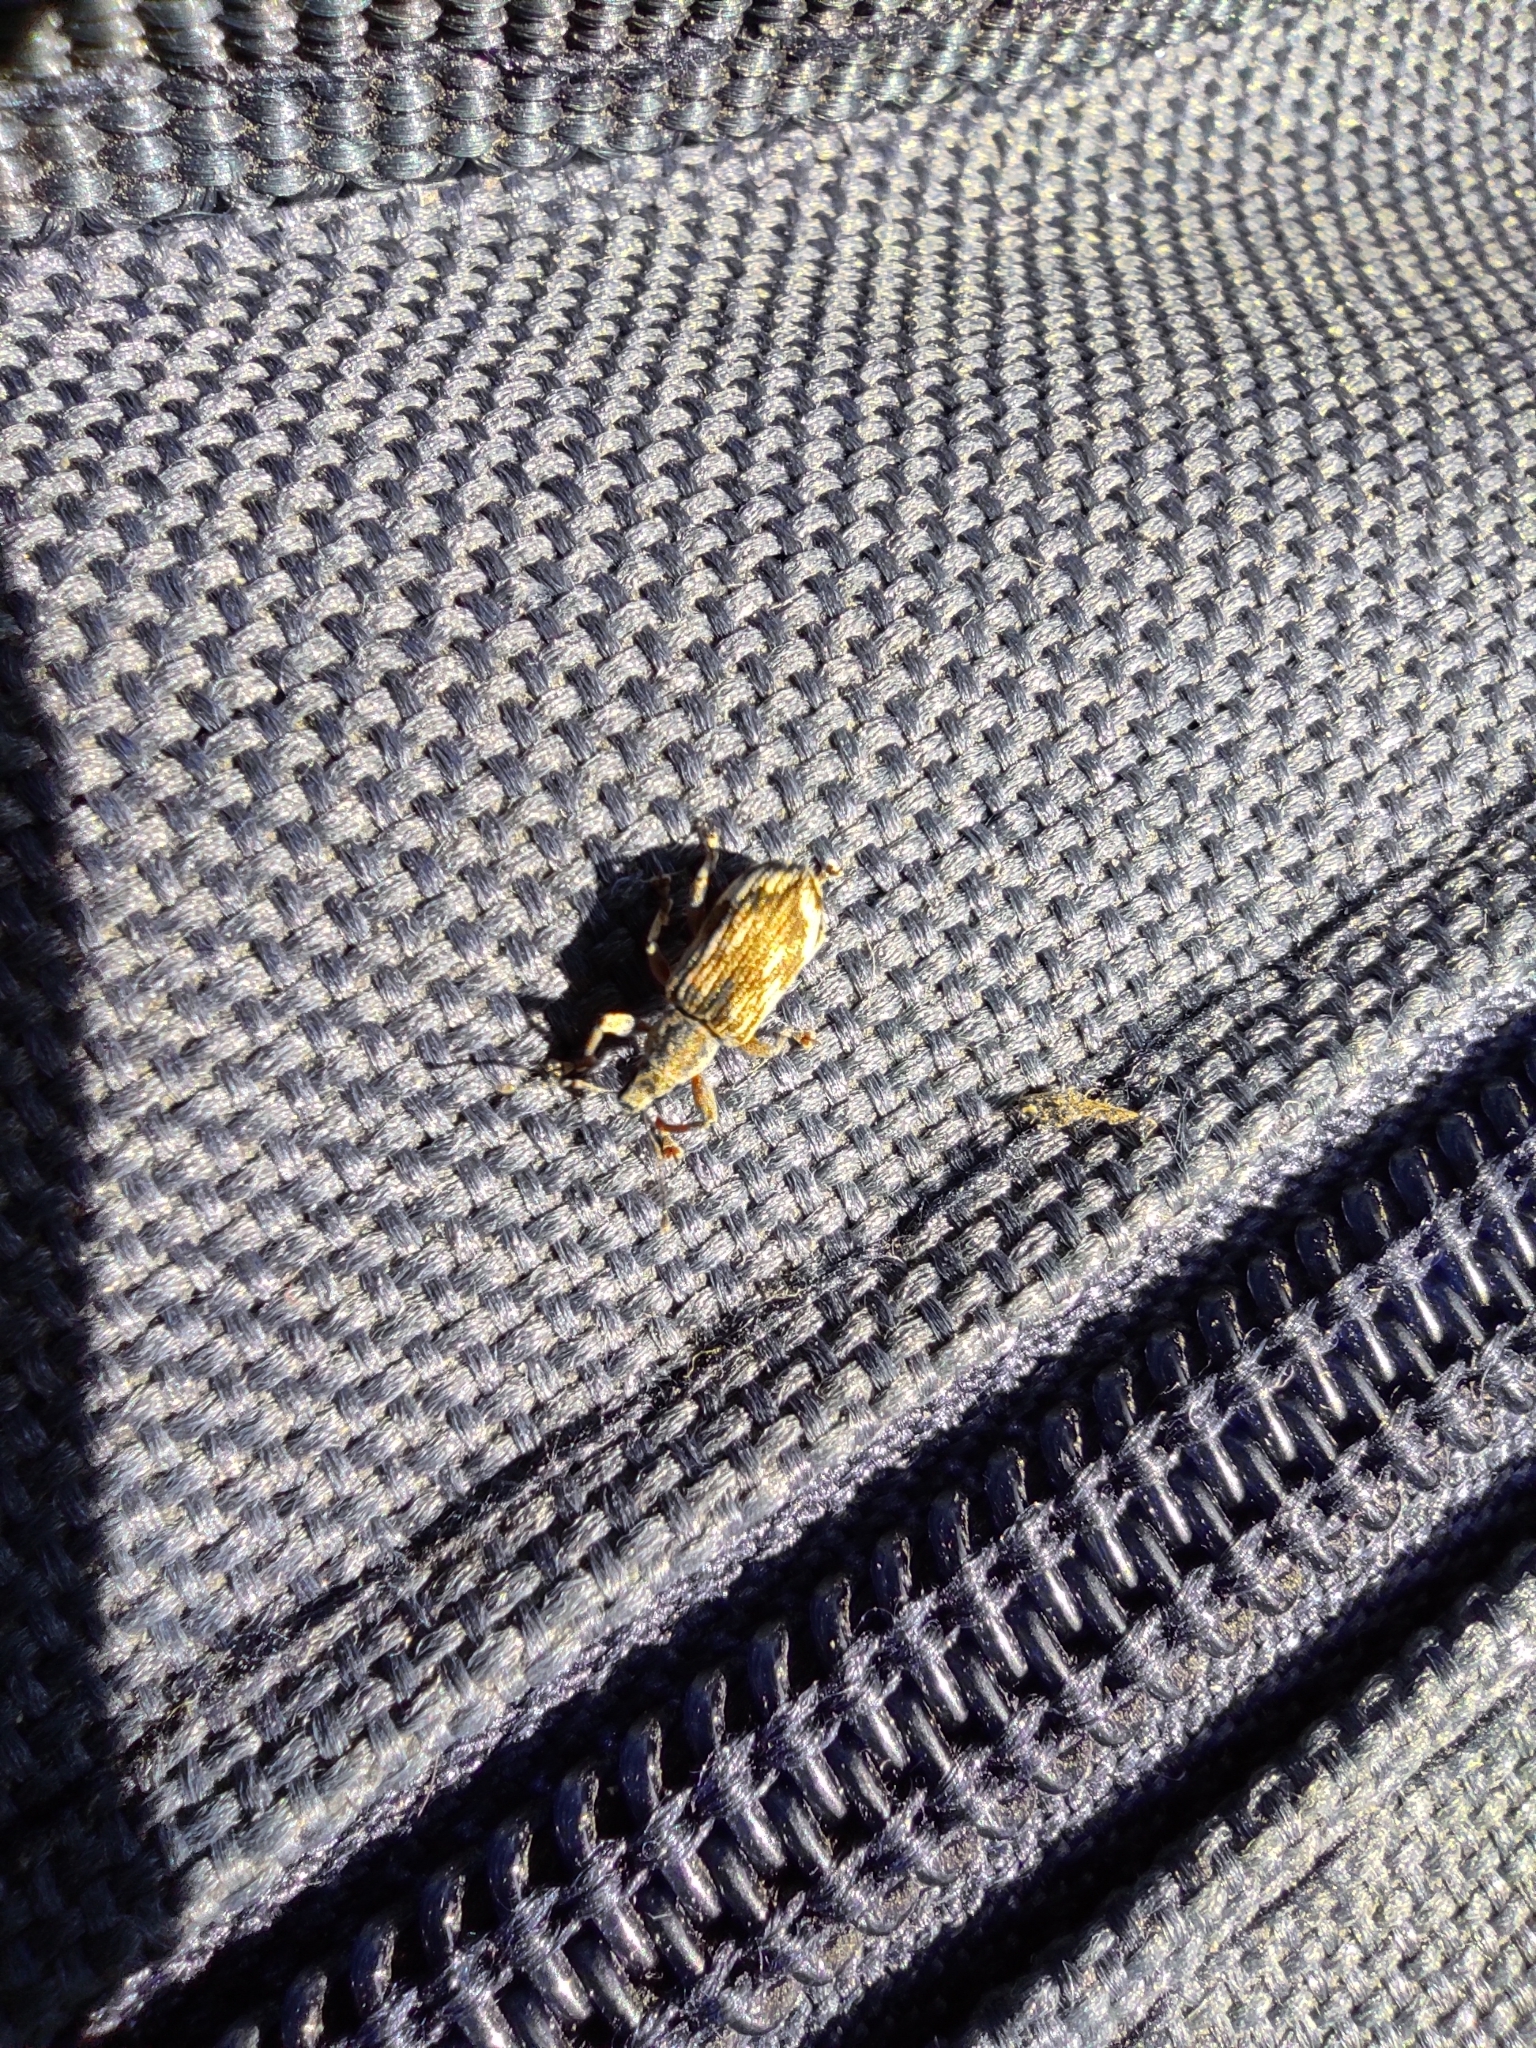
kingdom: Animalia
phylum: Arthropoda
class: Insecta
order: Coleoptera
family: Curculionidae
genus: Polydrusus
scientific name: Polydrusus tereticollis
